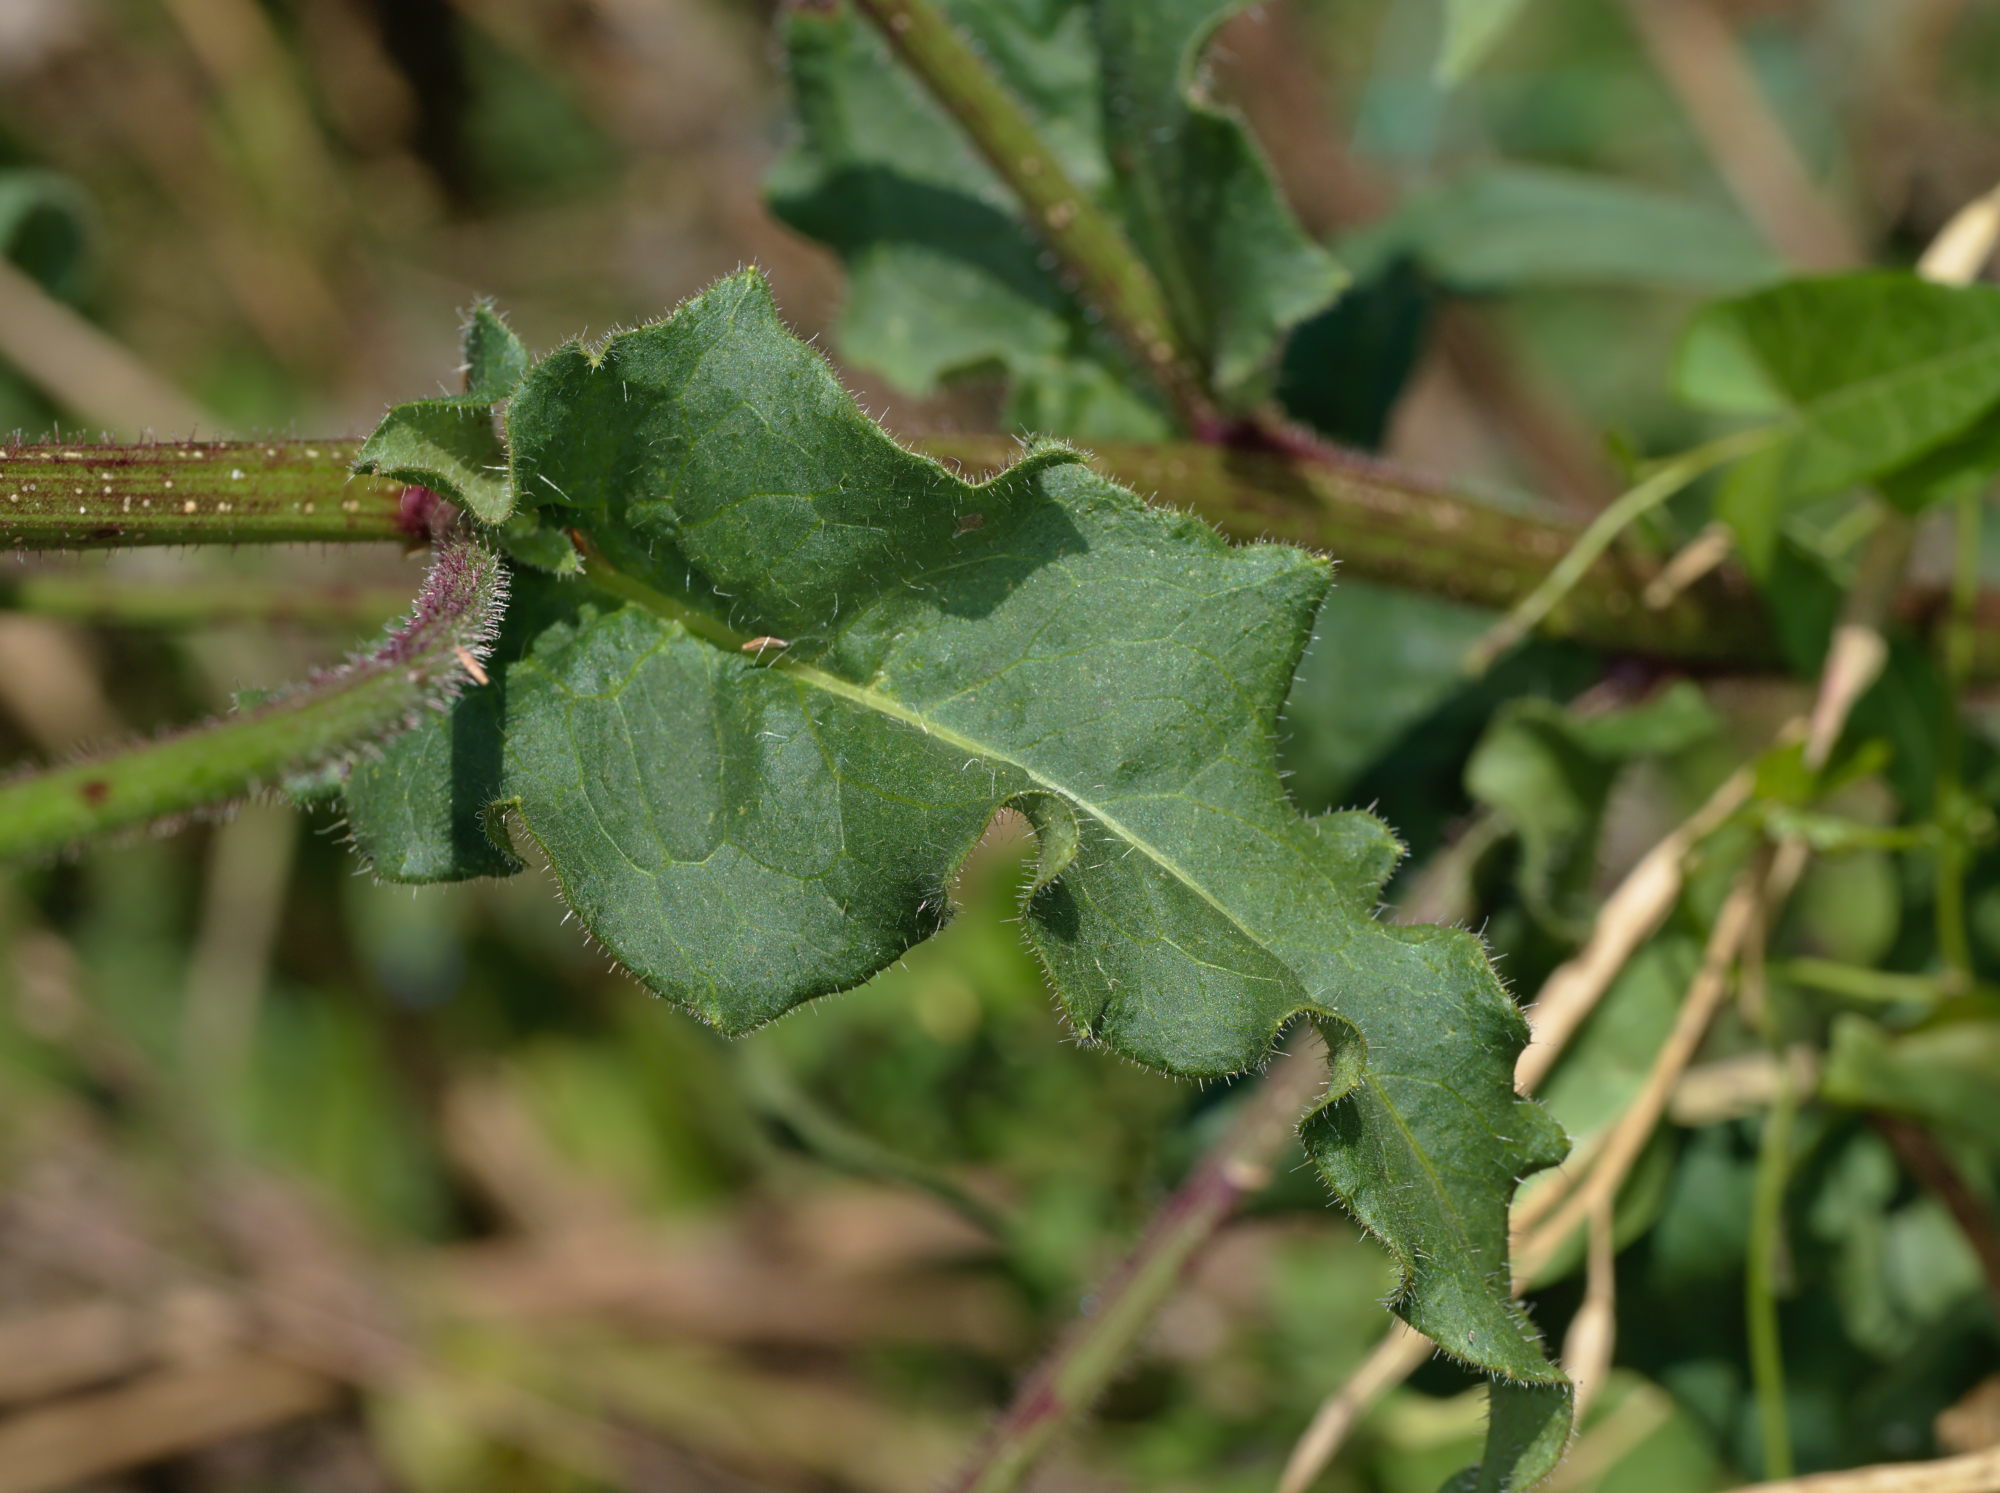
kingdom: Plantae
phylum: Tracheophyta
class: Magnoliopsida
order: Asterales
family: Asteraceae
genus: Picris
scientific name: Picris hieracioides
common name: Hawkweed oxtongue
